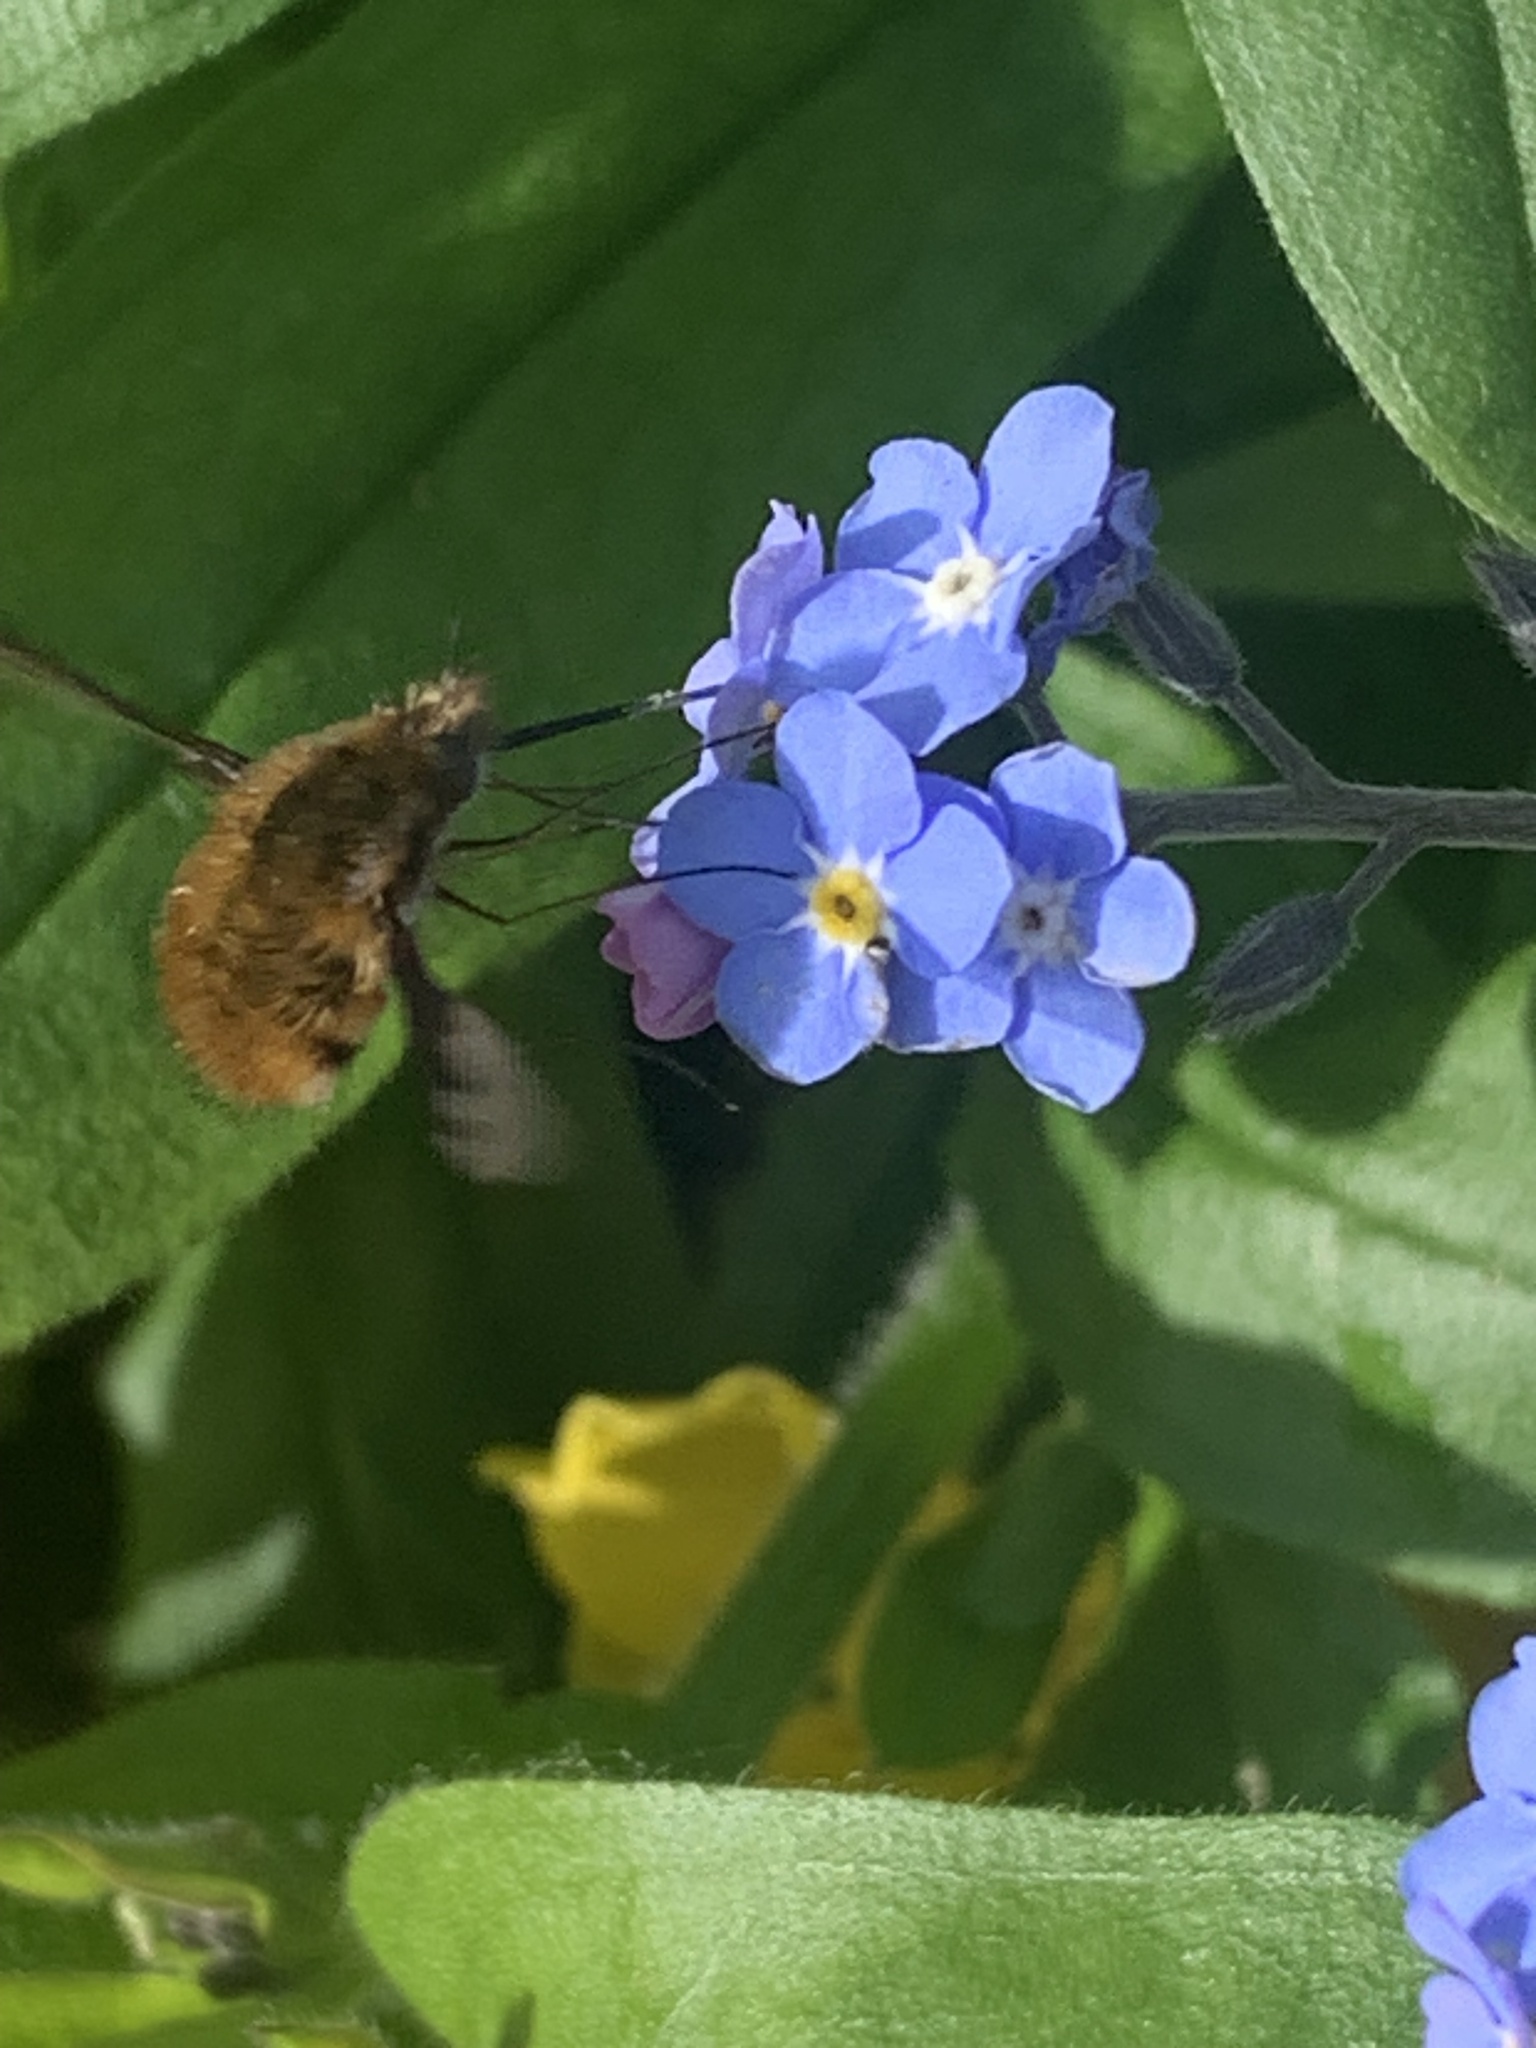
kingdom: Animalia
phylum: Arthropoda
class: Insecta
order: Diptera
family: Bombyliidae
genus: Bombylius
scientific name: Bombylius major
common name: Bee fly
